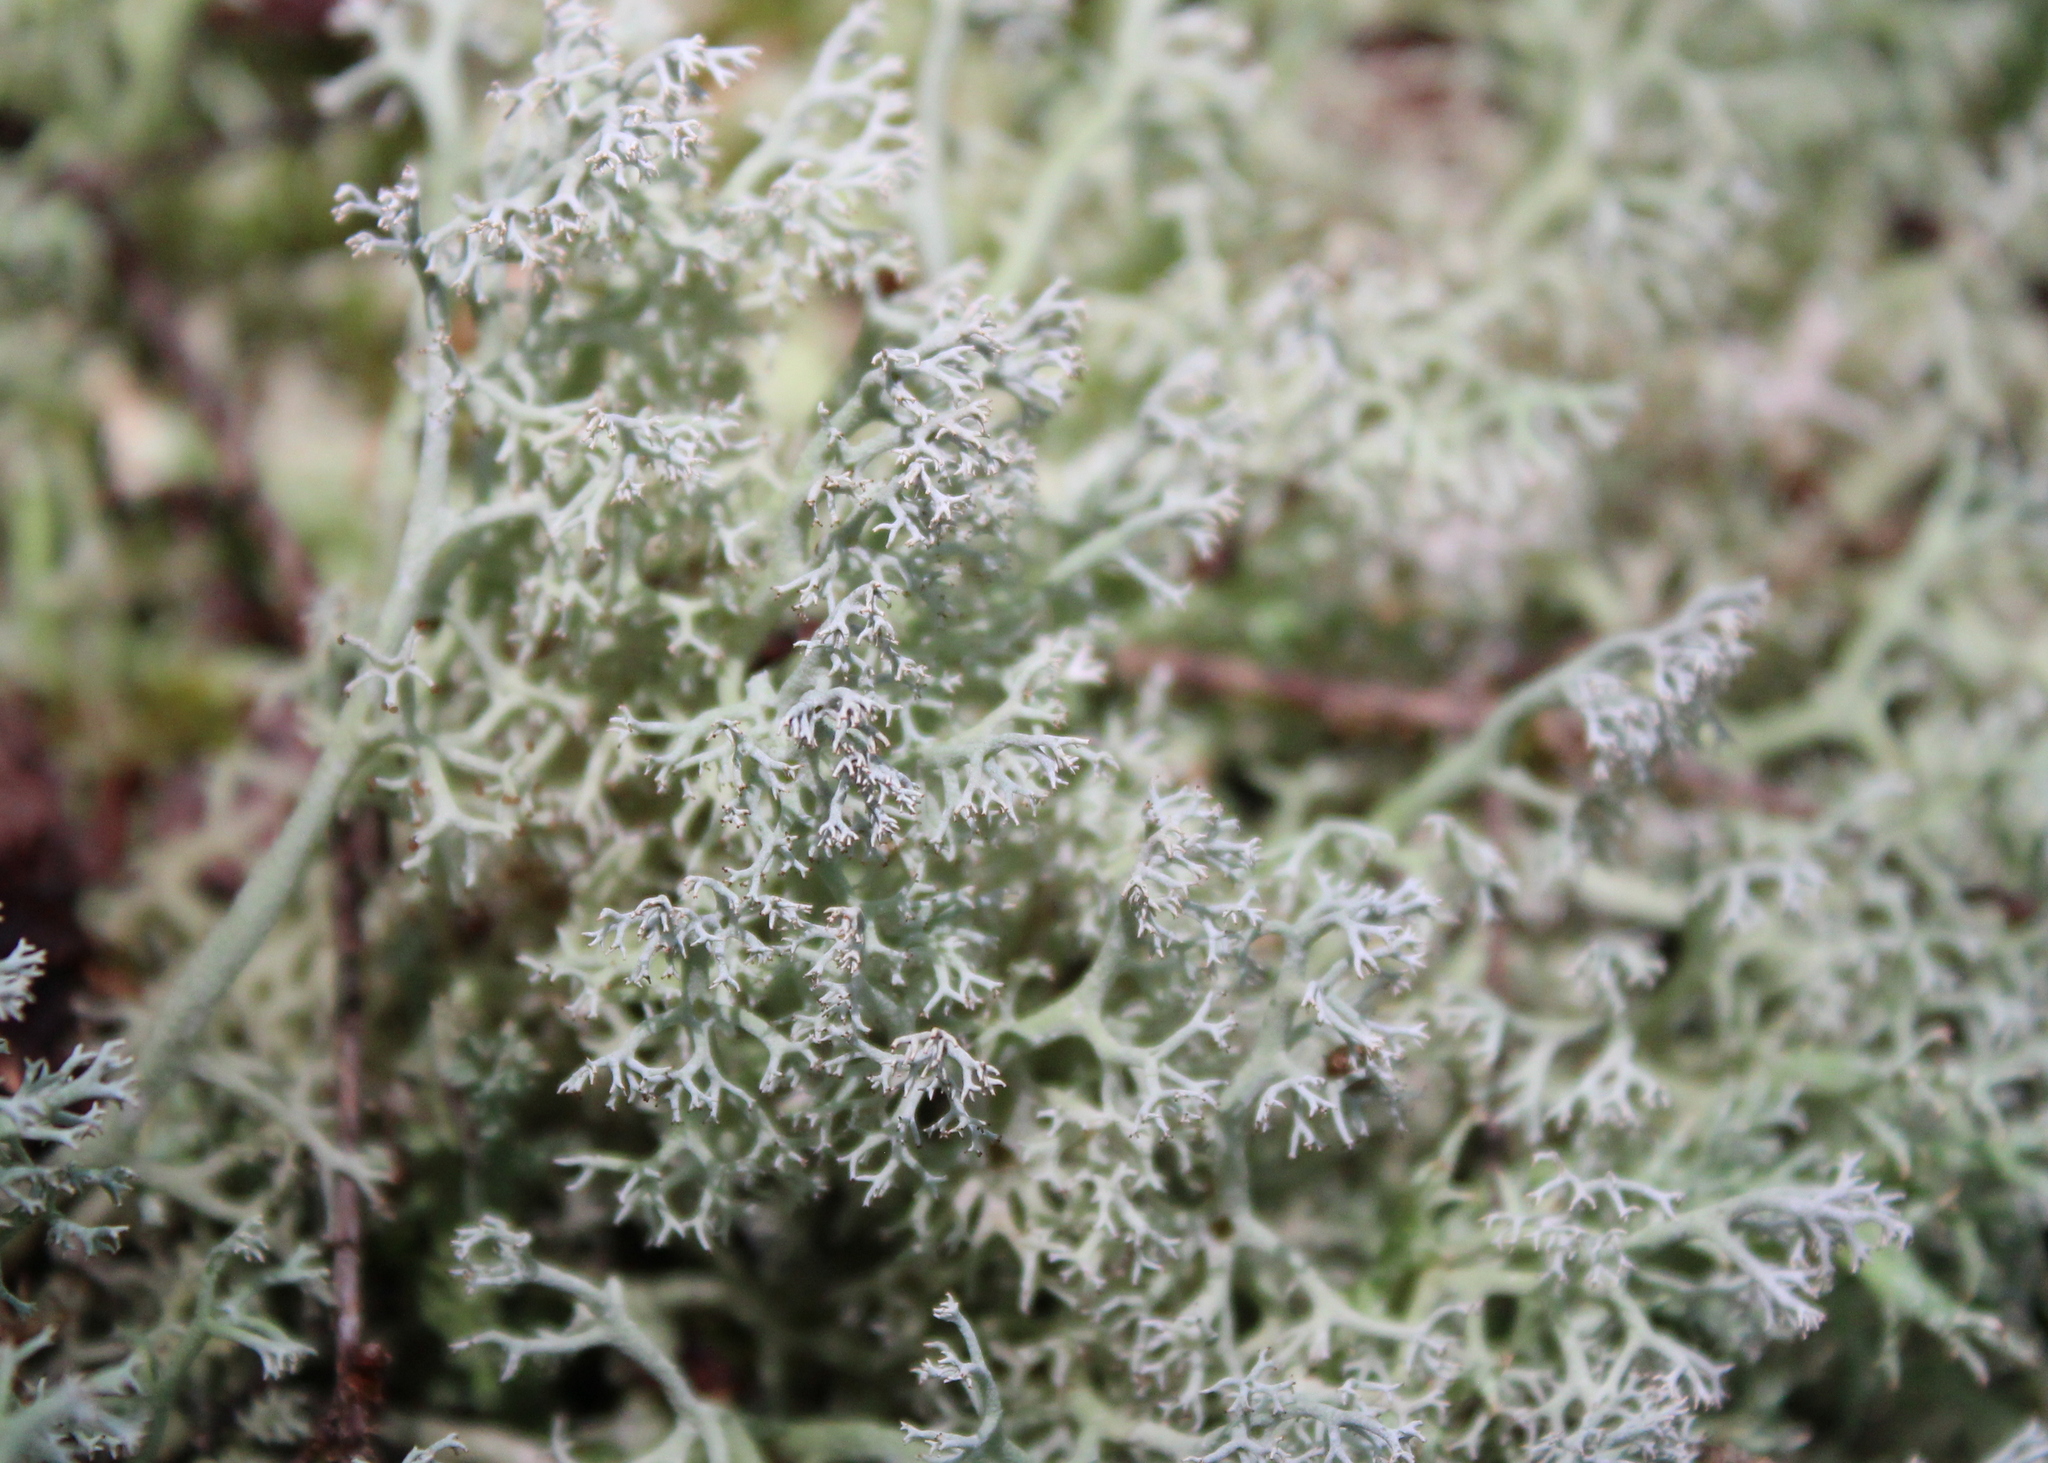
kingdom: Fungi
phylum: Ascomycota
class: Lecanoromycetes
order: Lecanorales
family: Cladoniaceae
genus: Cladonia
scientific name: Cladonia rangiferina
